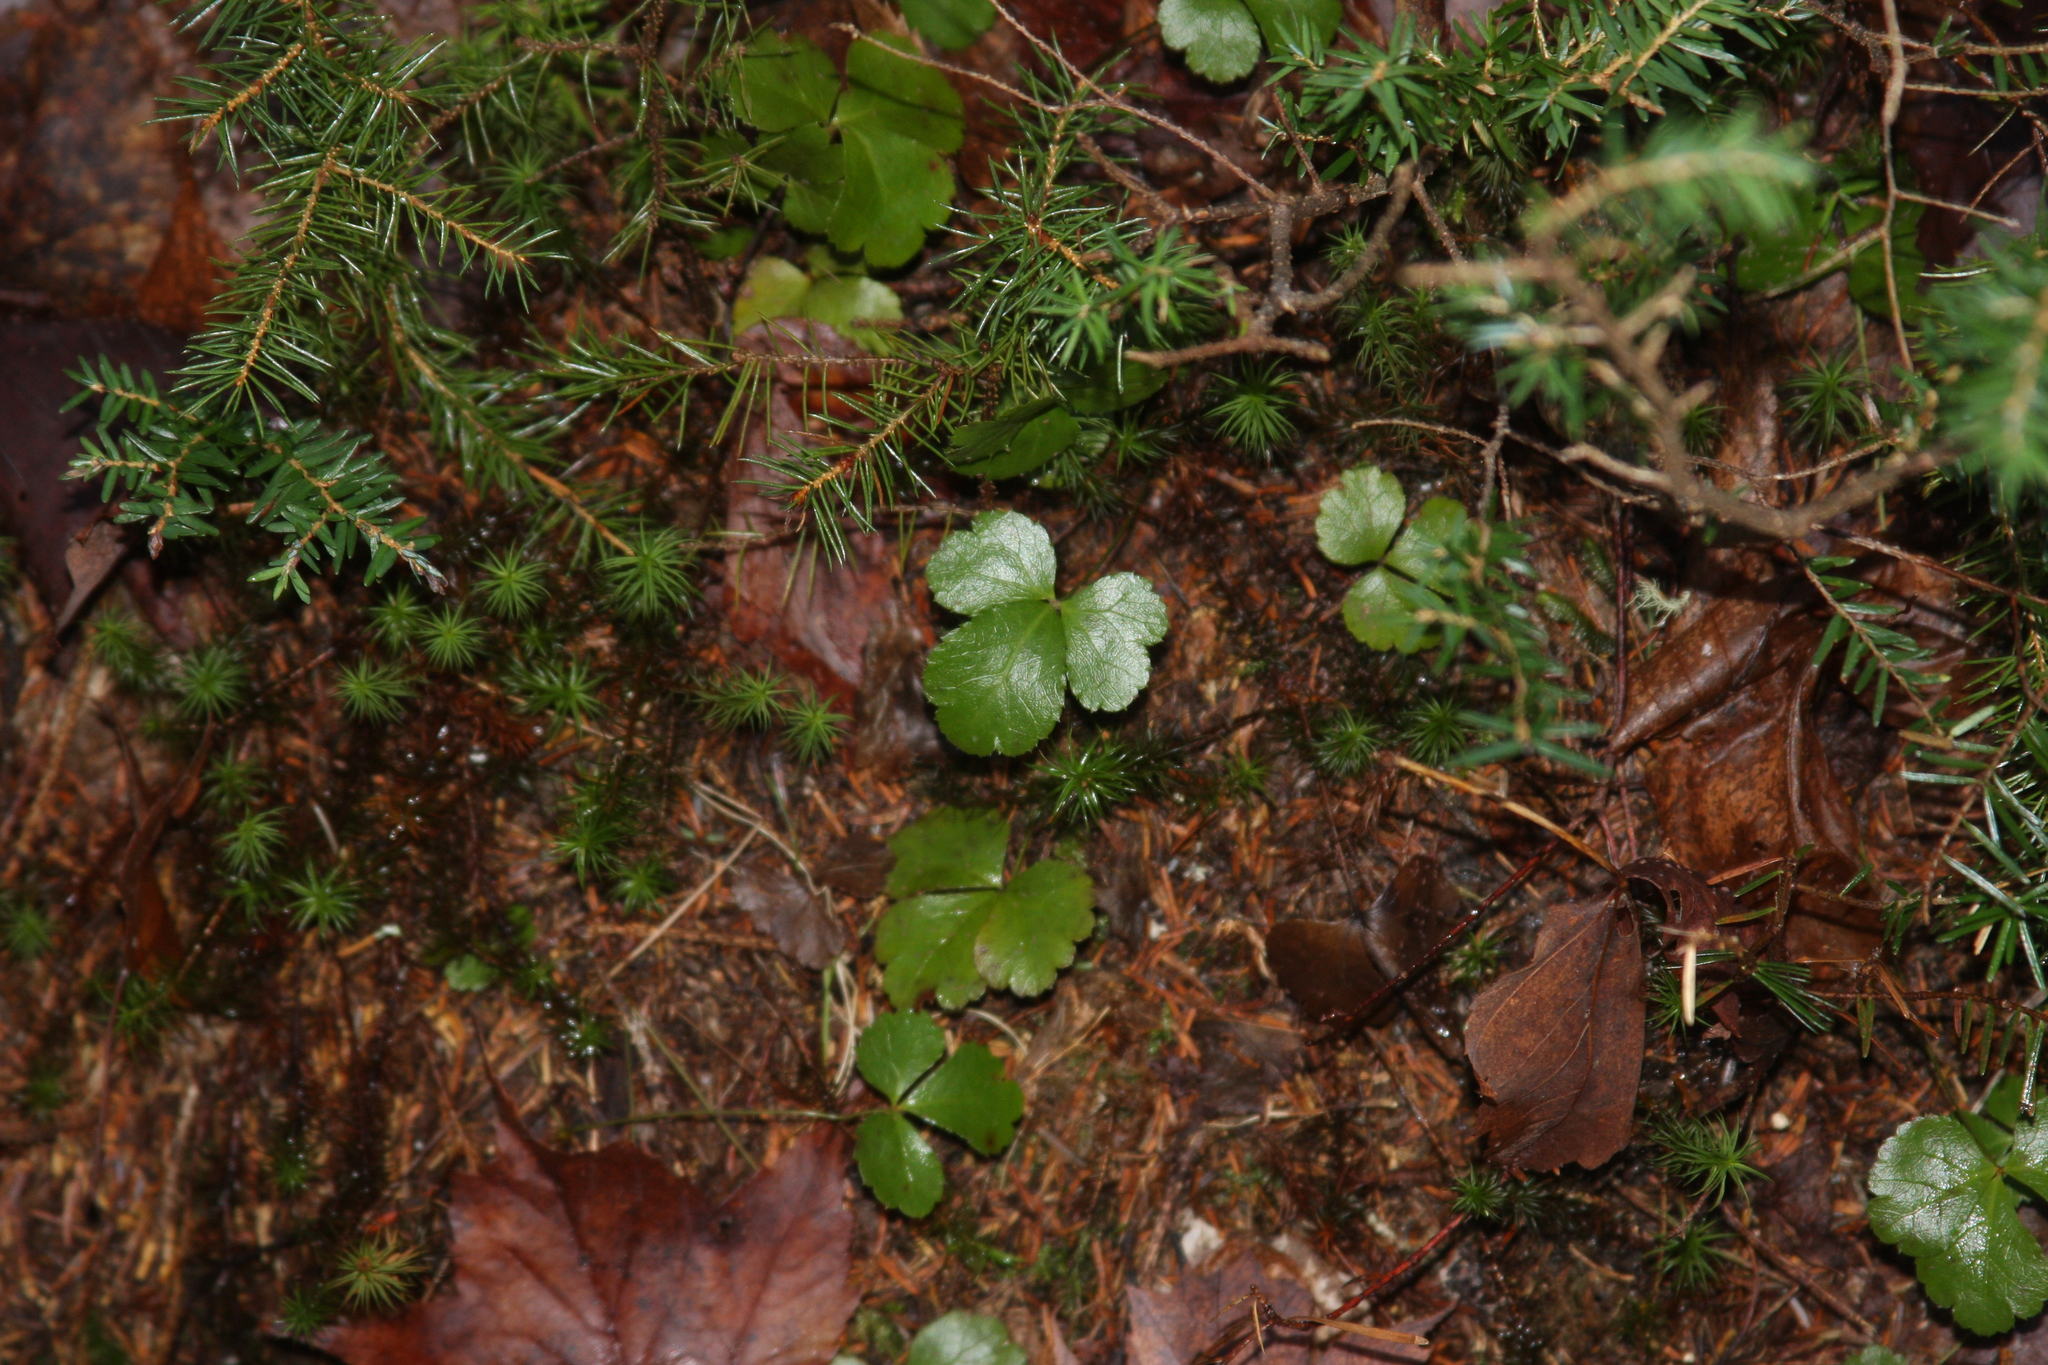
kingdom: Plantae
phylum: Tracheophyta
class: Magnoliopsida
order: Ranunculales
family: Ranunculaceae
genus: Coptis
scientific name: Coptis trifolia
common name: Canker-root
